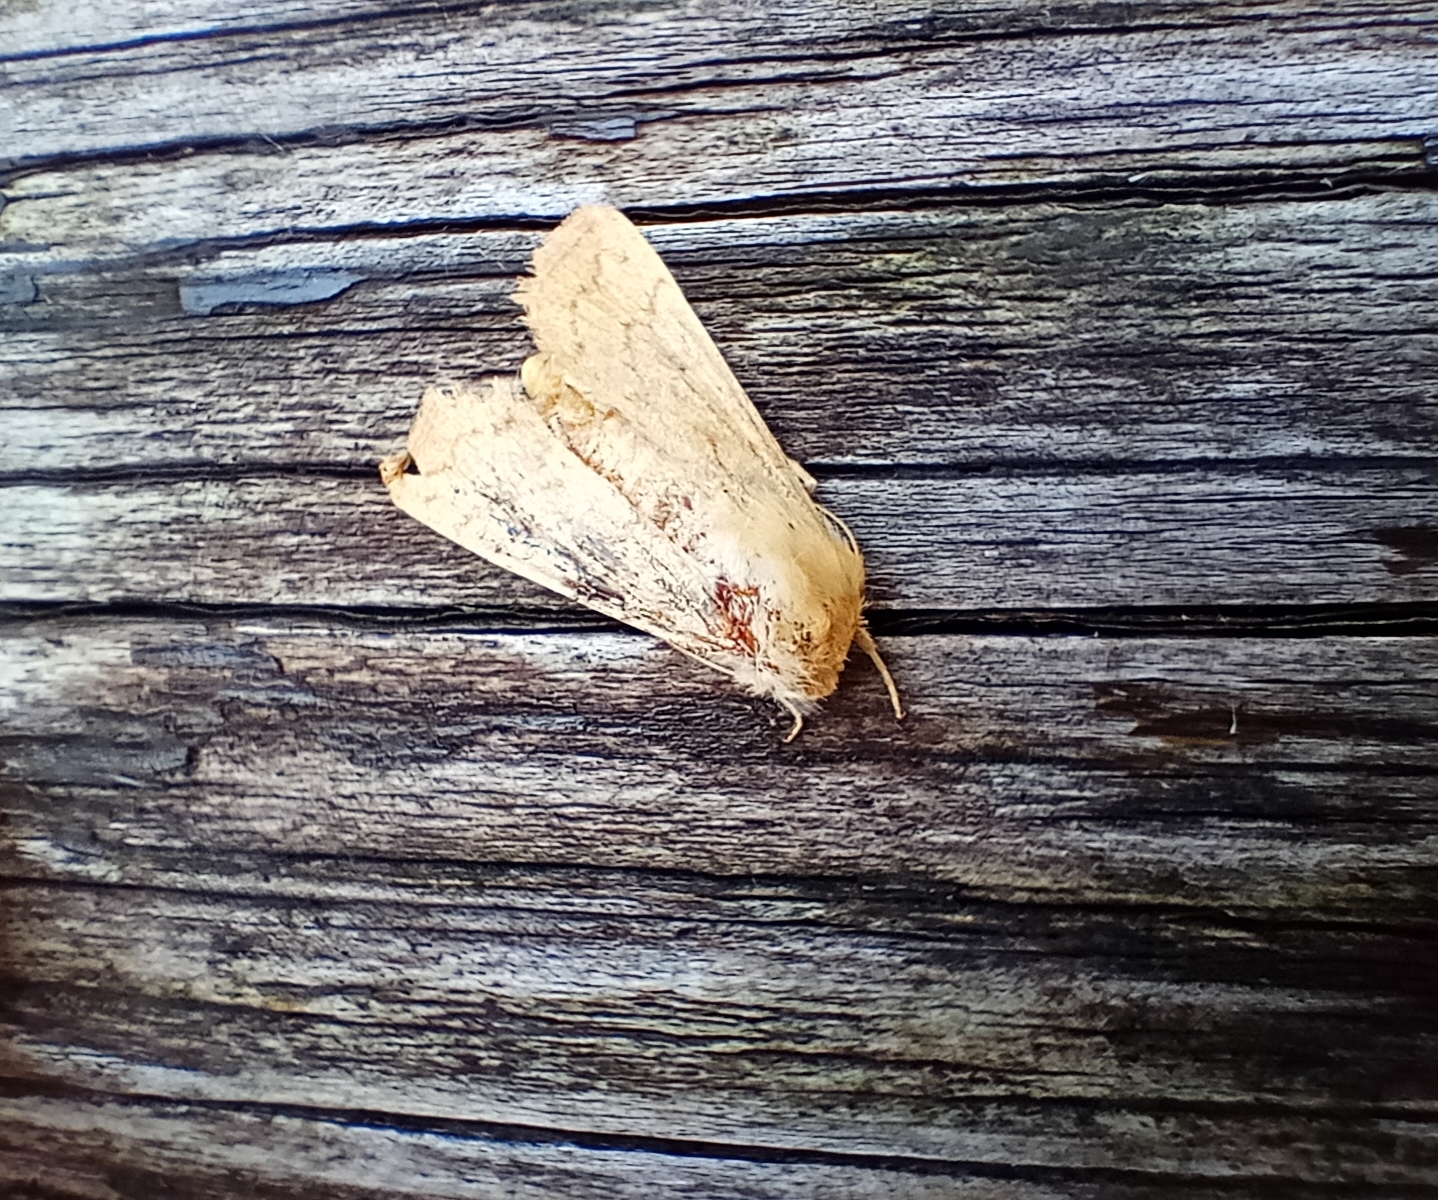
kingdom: Animalia
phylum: Arthropoda
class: Insecta
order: Lepidoptera
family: Noctuidae
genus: Mythimna
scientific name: Mythimna vitellina
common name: Delicate
